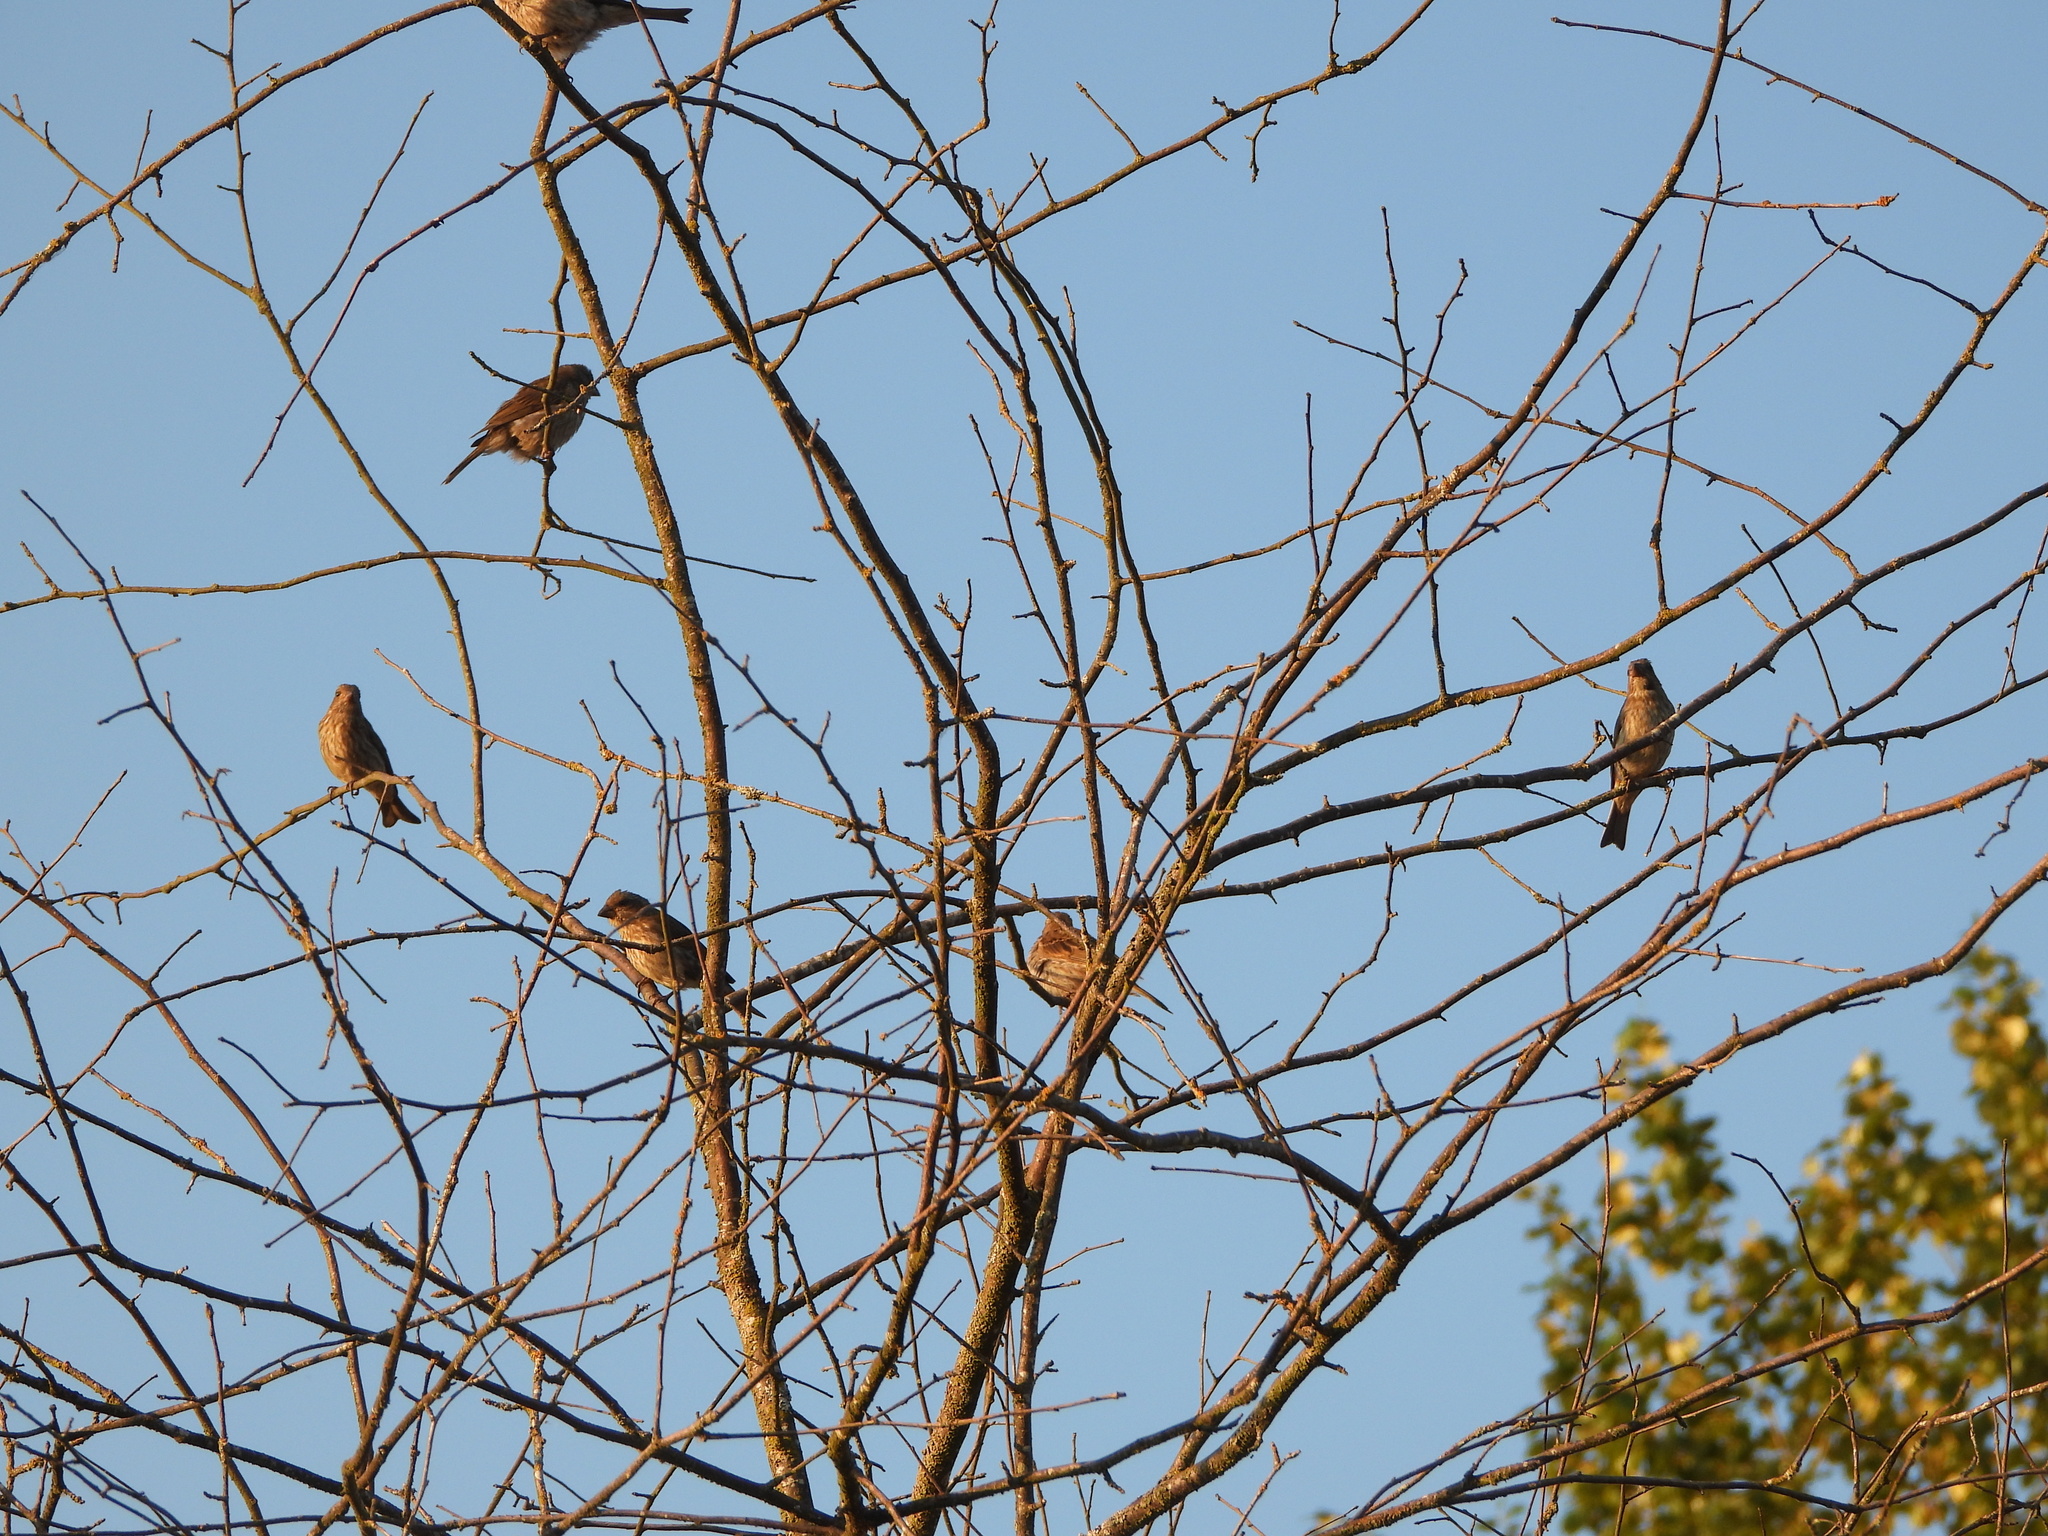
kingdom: Animalia
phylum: Chordata
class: Aves
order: Passeriformes
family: Fringillidae
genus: Haemorhous
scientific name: Haemorhous purpureus
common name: Purple finch
